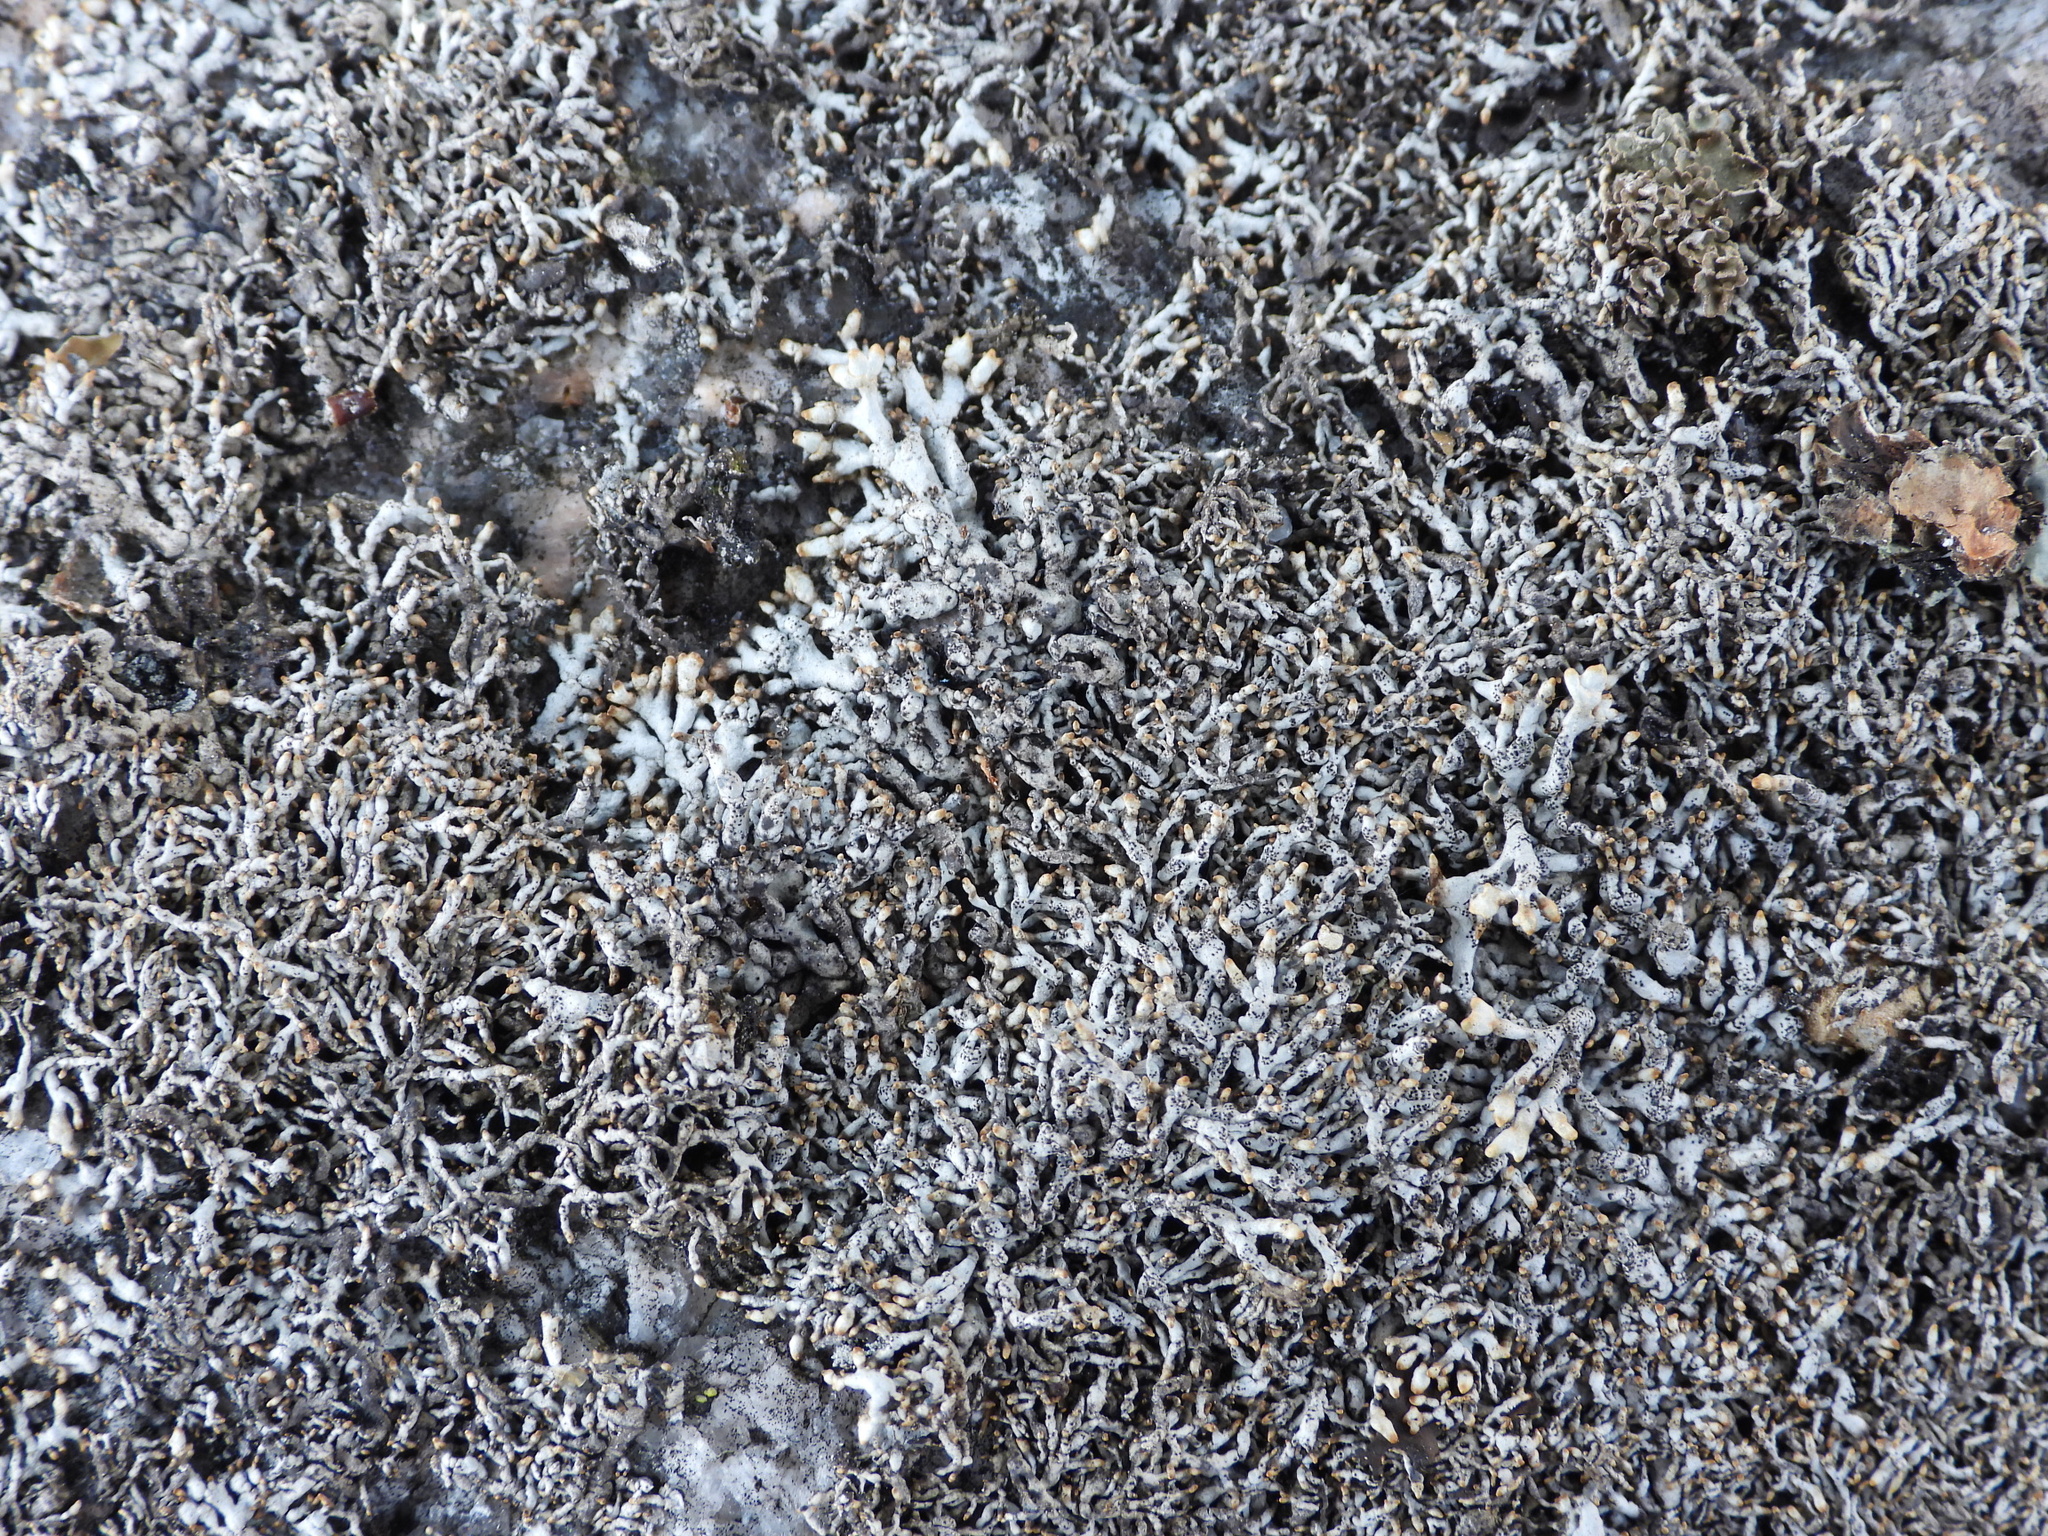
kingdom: Fungi
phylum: Ascomycota
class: Lecanoromycetes
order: Lecanorales
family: Parmeliaceae
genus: Brodoa
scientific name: Brodoa intestiniformis
